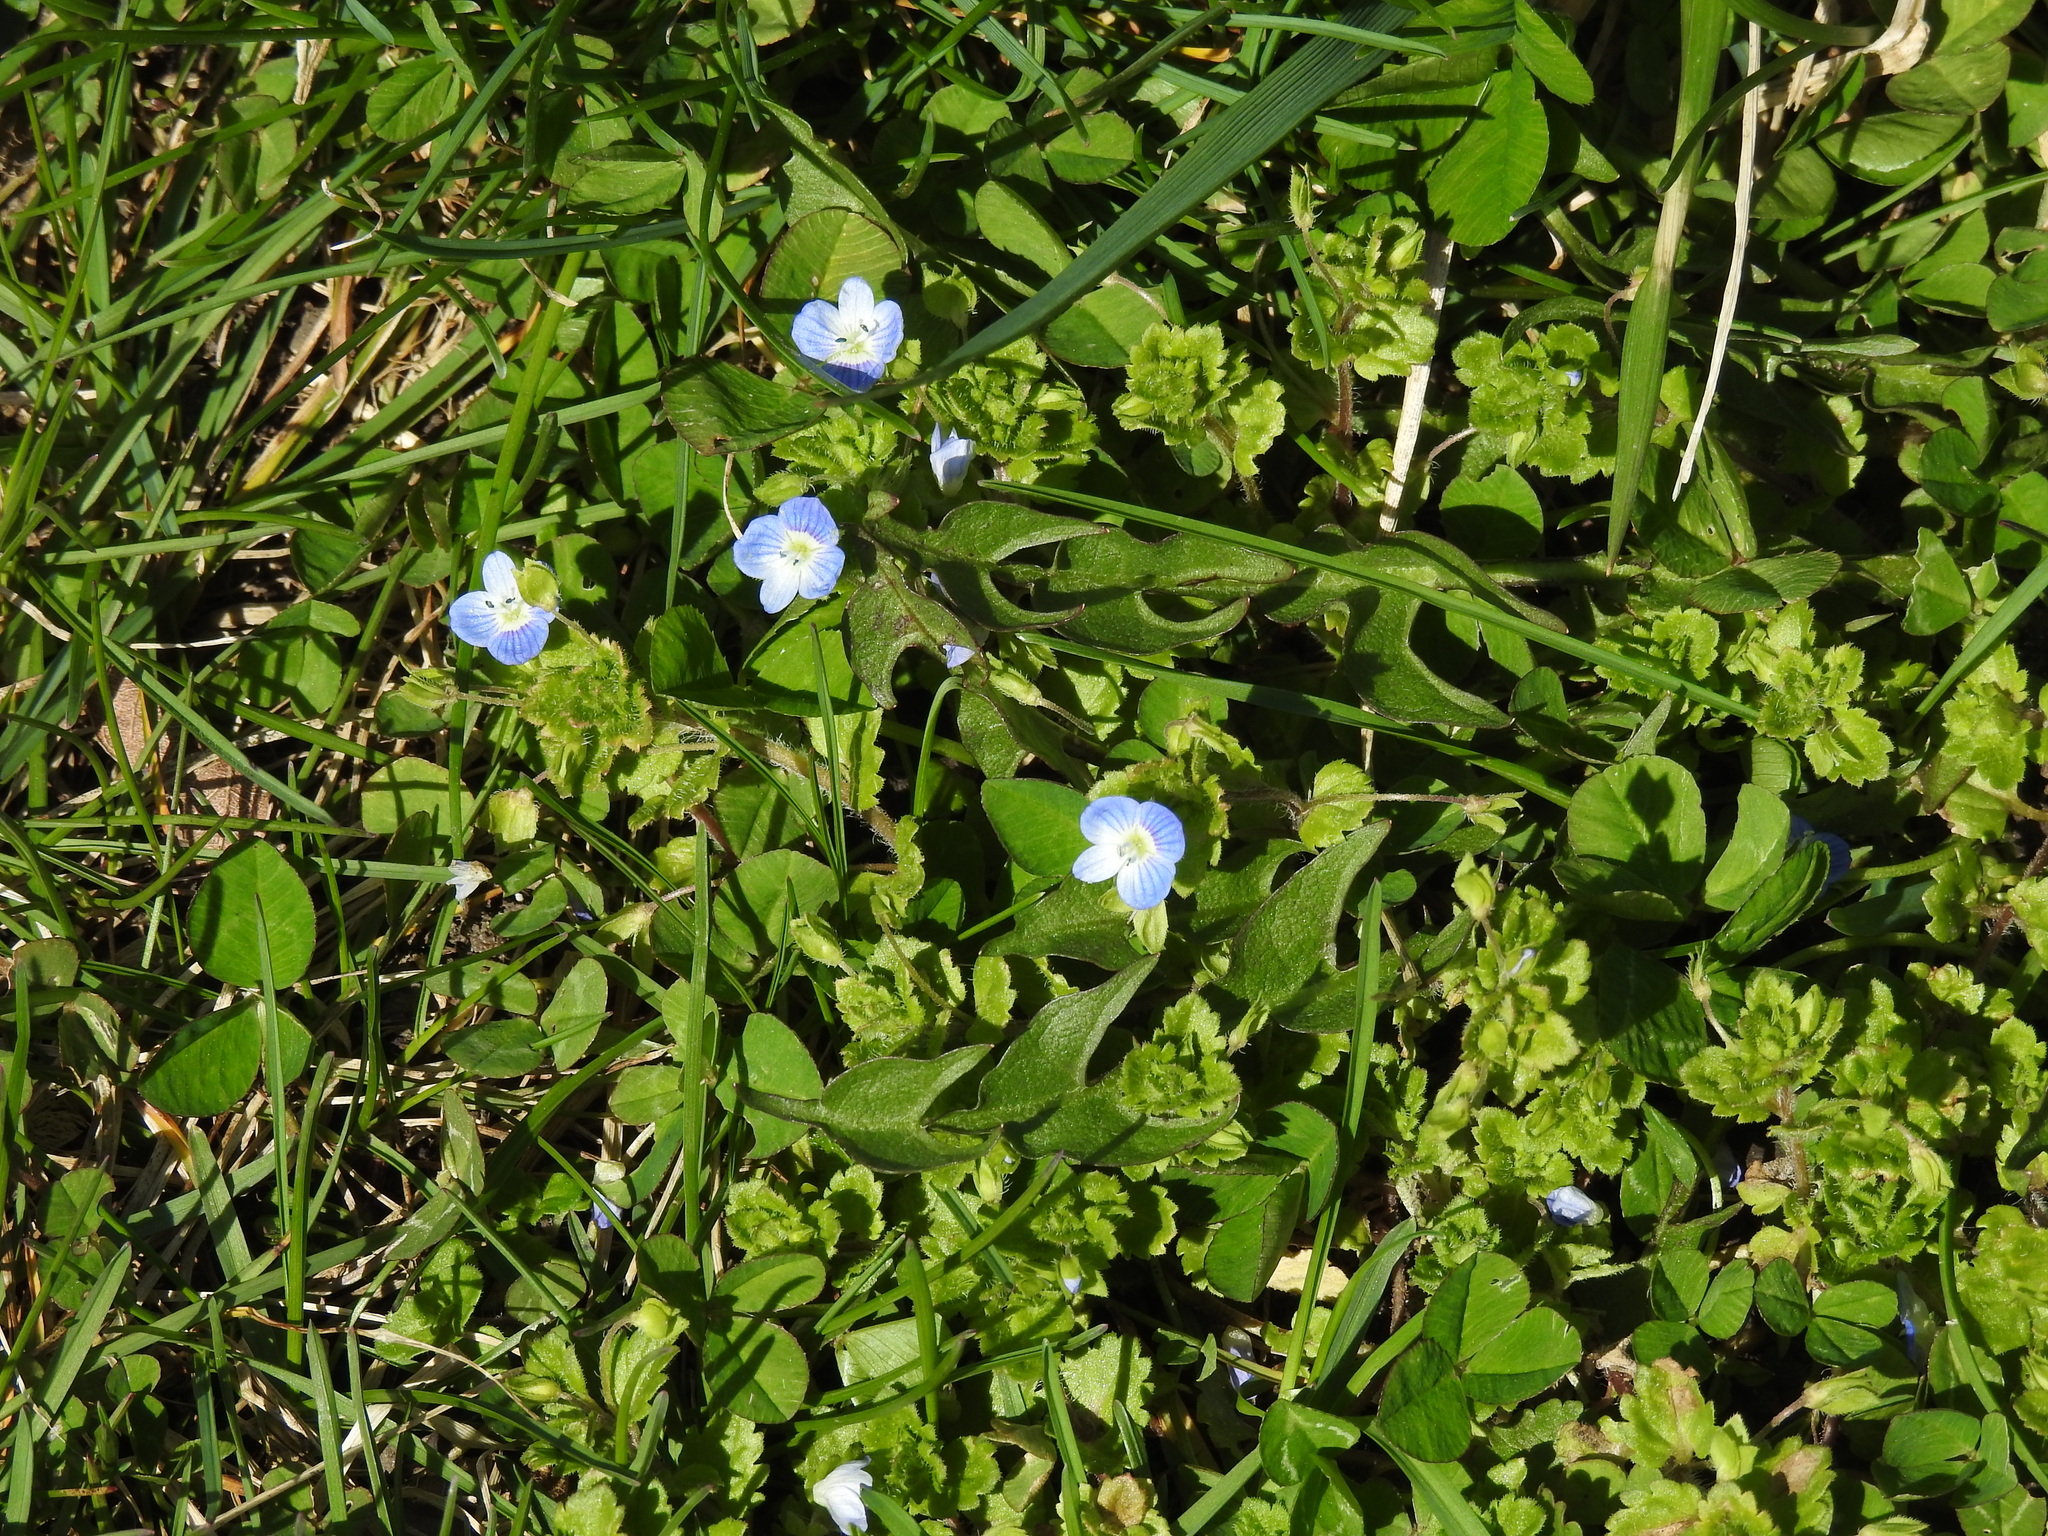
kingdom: Plantae
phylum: Tracheophyta
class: Magnoliopsida
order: Lamiales
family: Plantaginaceae
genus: Veronica
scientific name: Veronica persica
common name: Common field-speedwell
